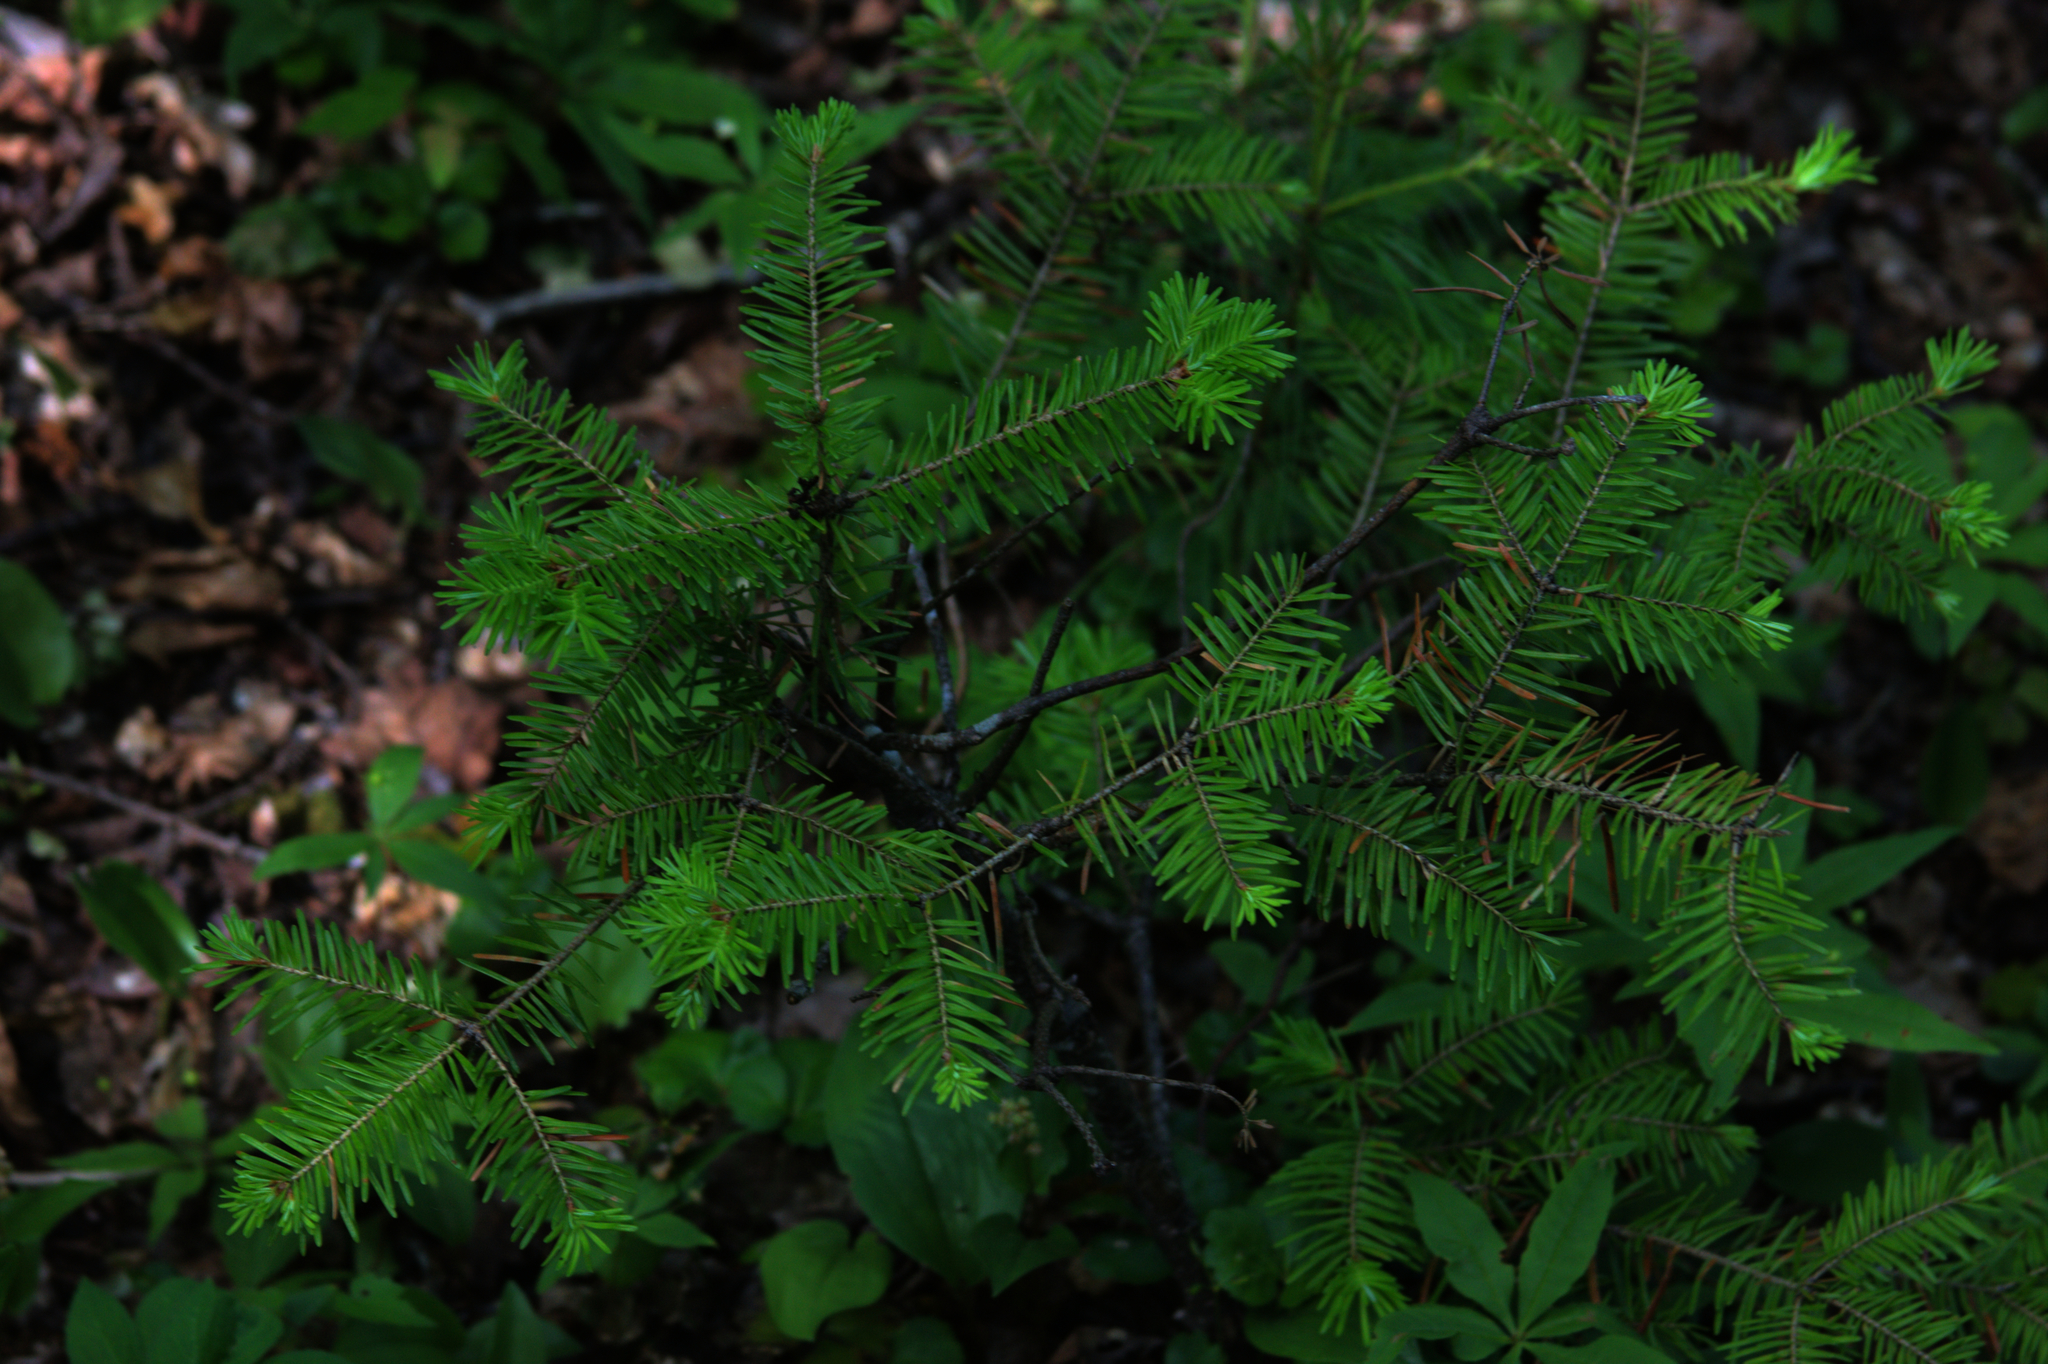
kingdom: Plantae
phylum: Tracheophyta
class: Pinopsida
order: Pinales
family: Pinaceae
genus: Abies
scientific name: Abies balsamea
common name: Balsam fir
